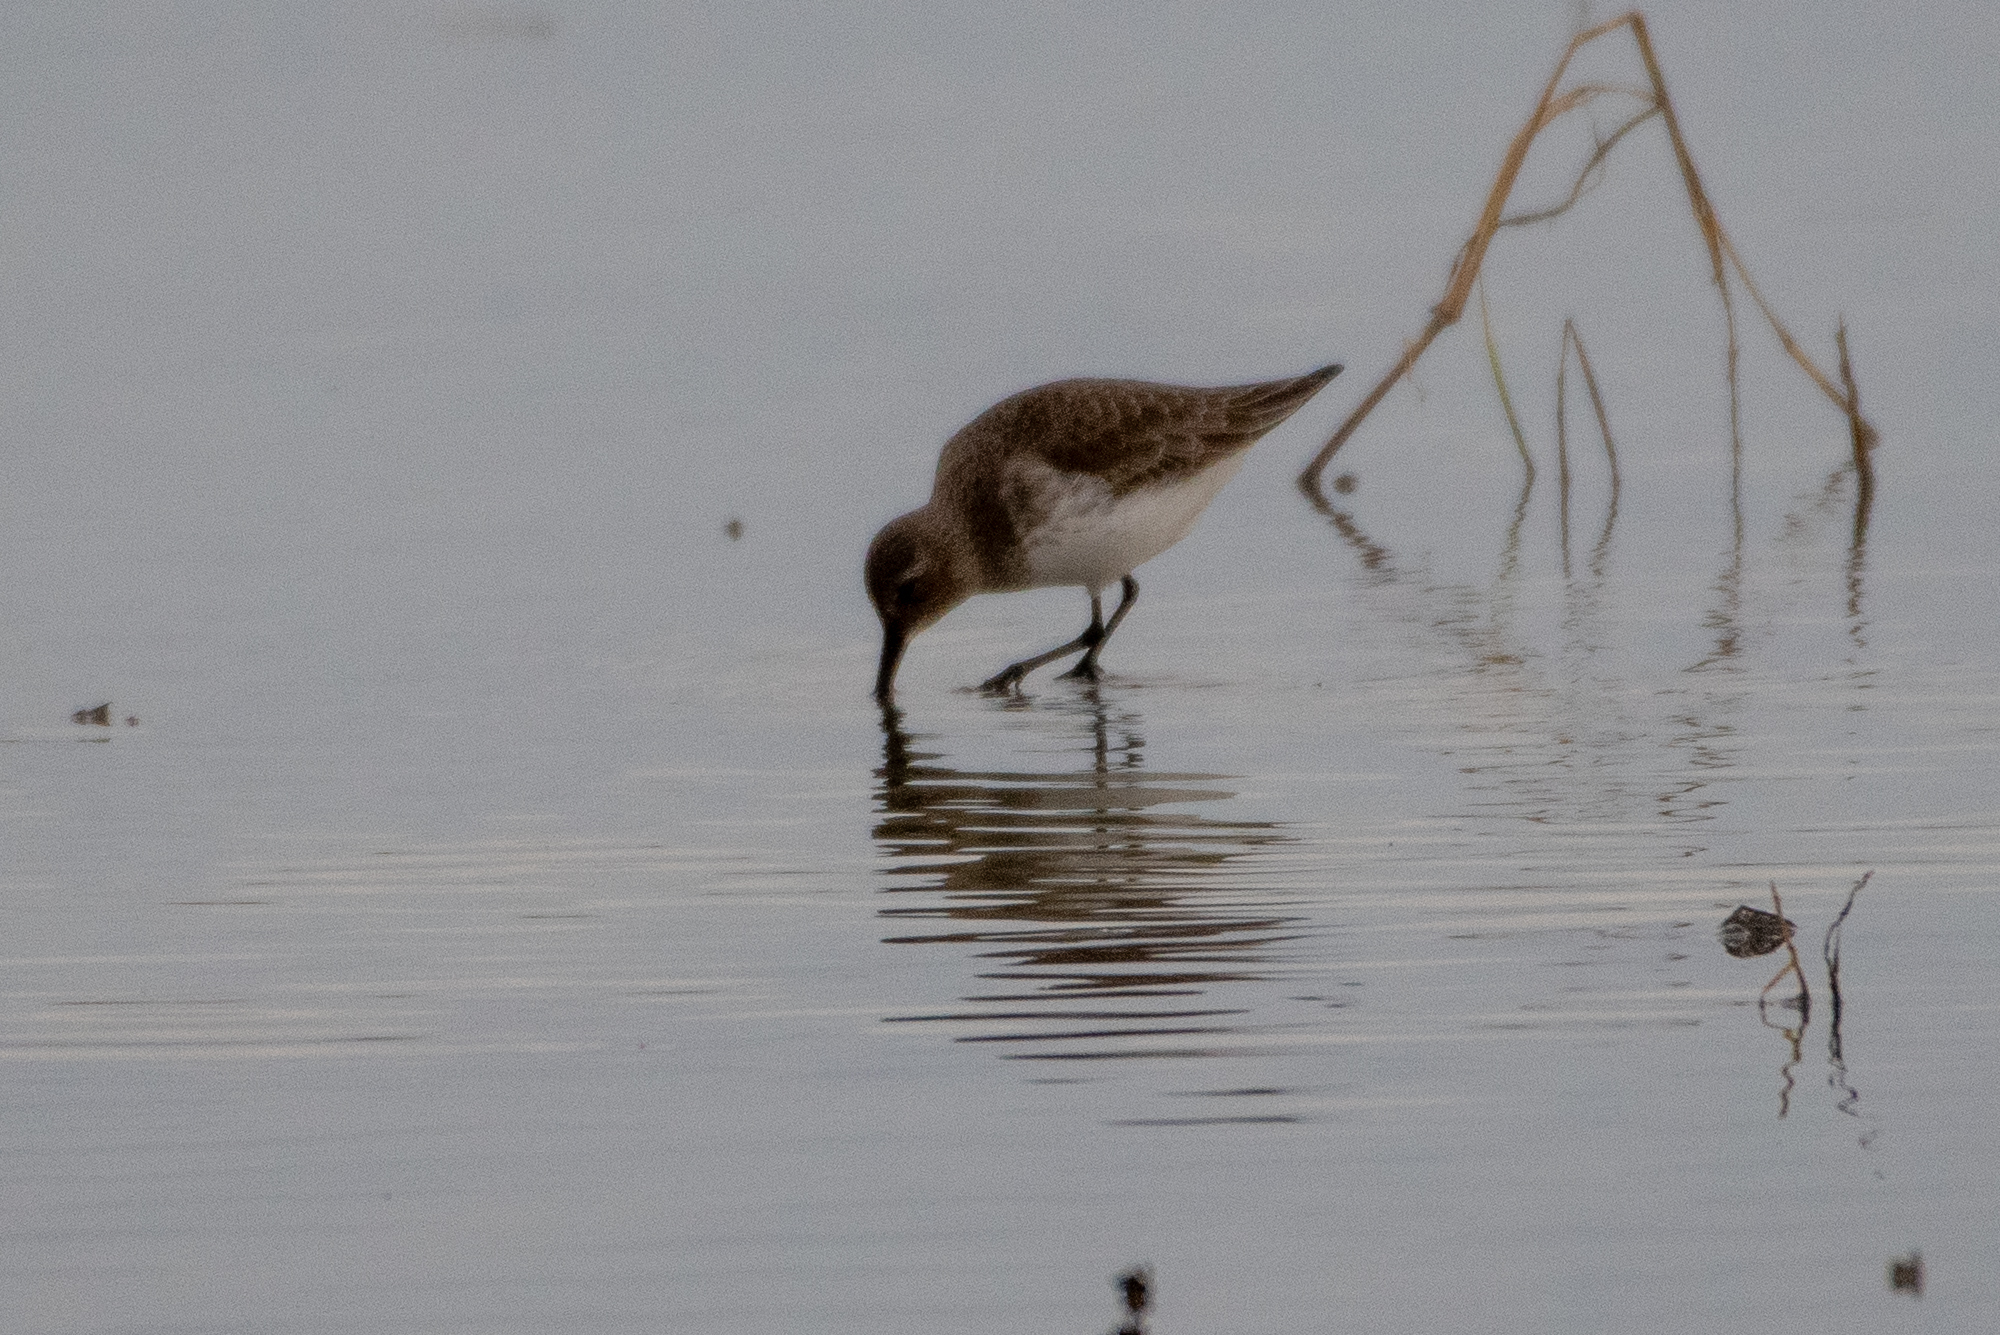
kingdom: Animalia
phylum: Chordata
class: Aves
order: Charadriiformes
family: Scolopacidae
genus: Calidris
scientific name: Calidris alpina
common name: Dunlin
